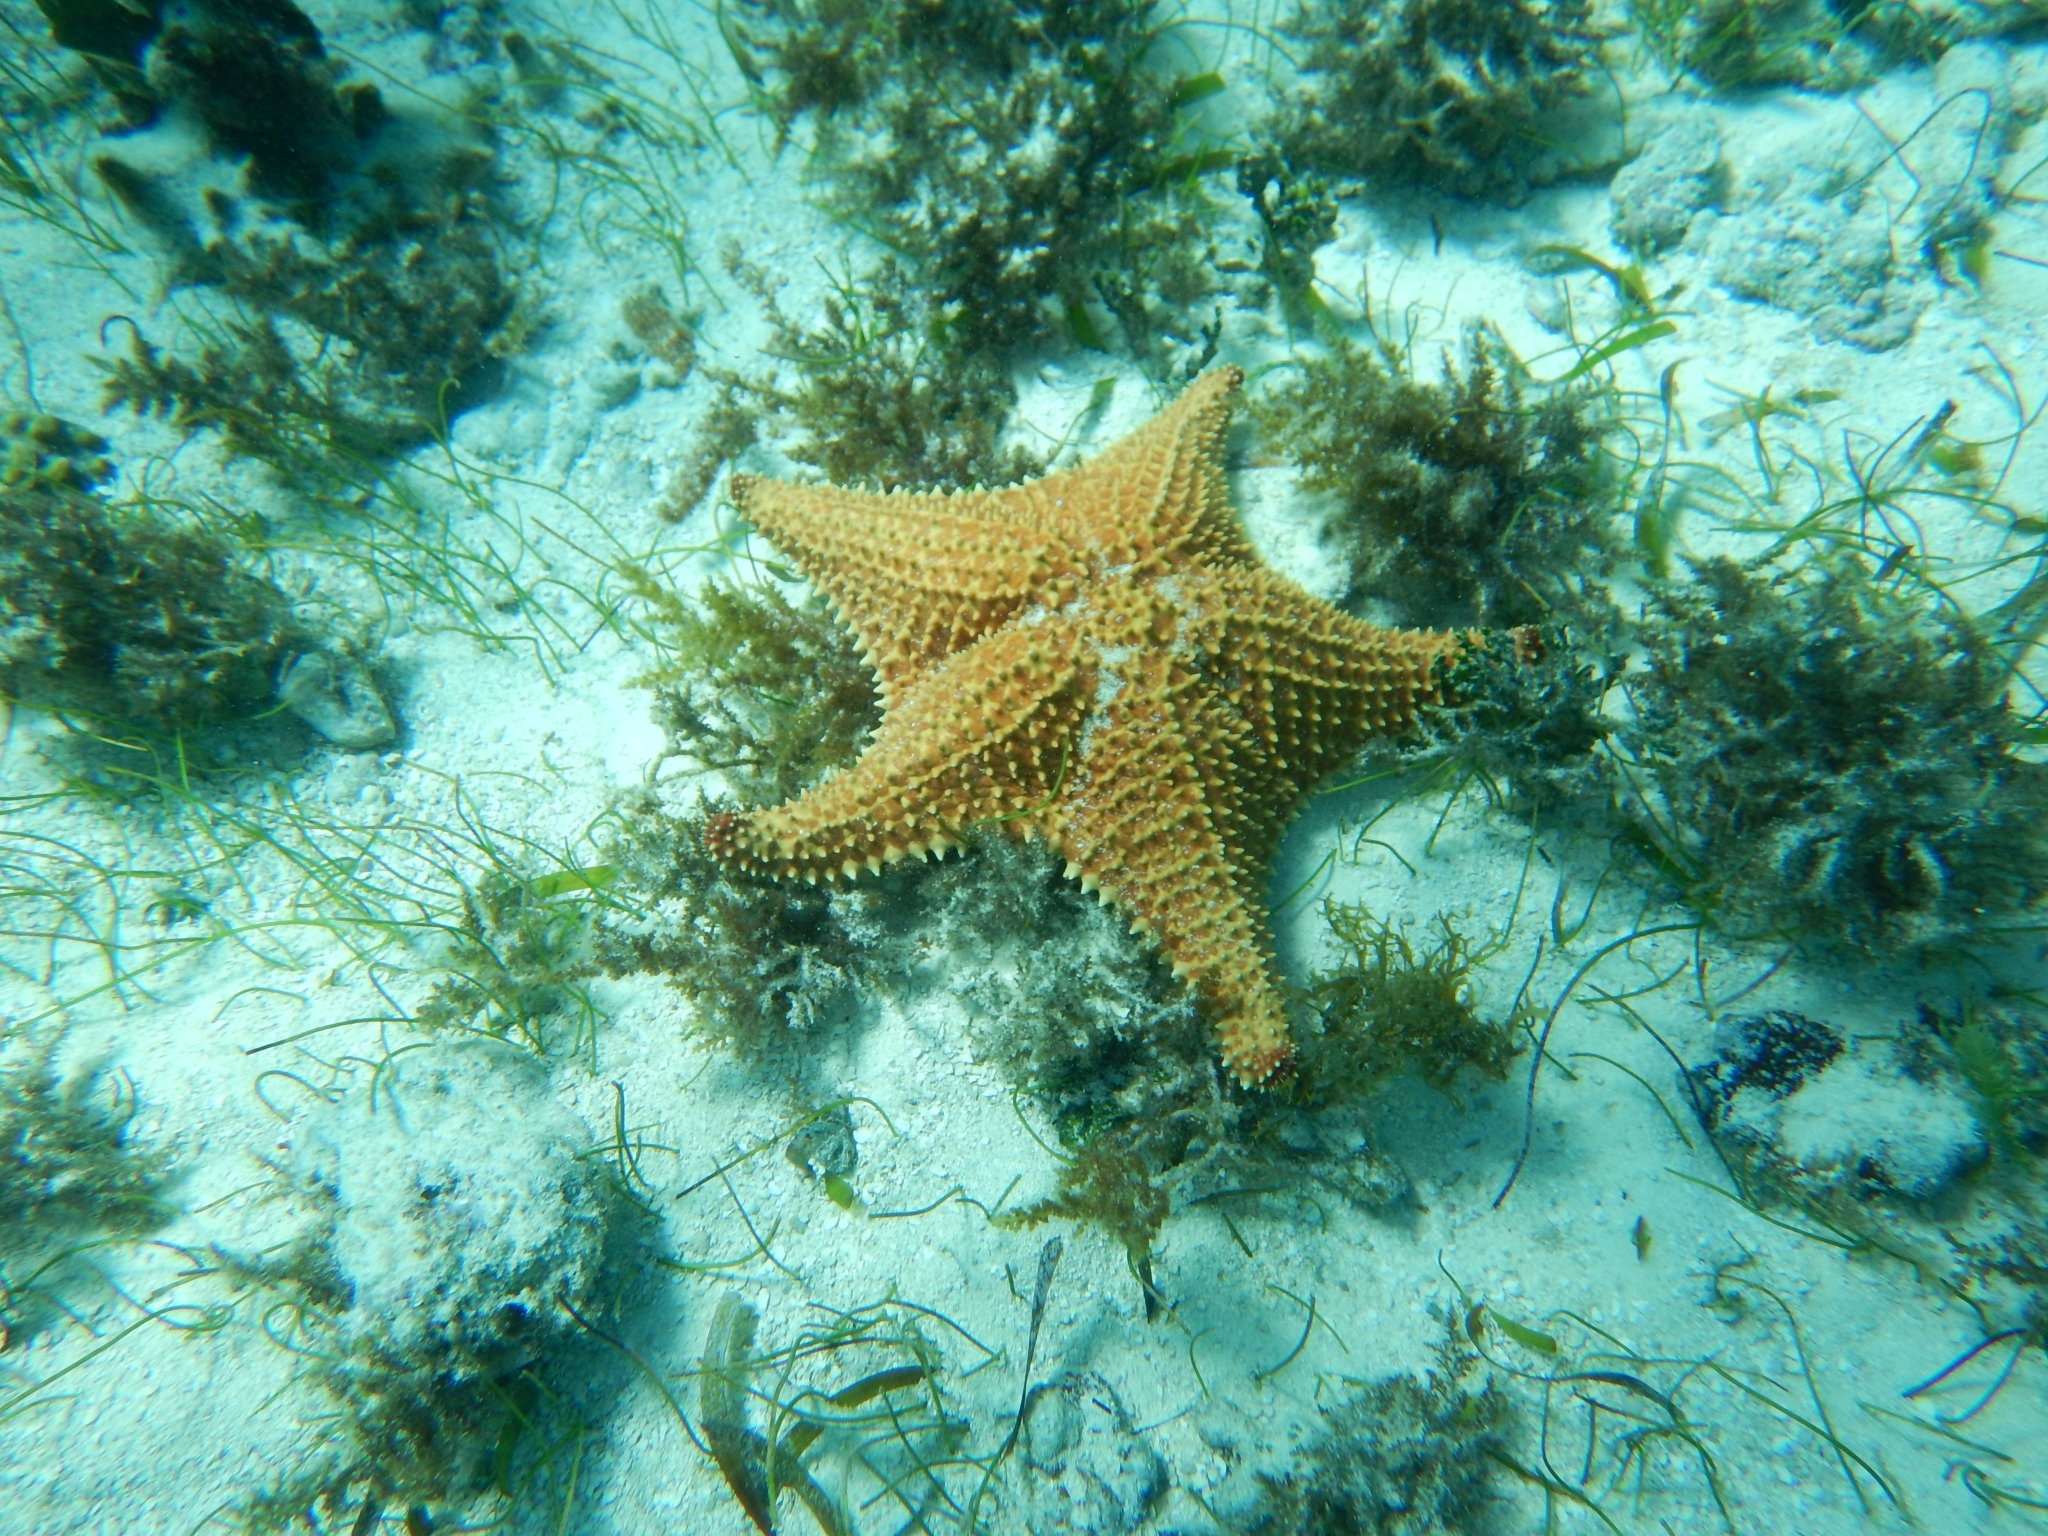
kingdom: Animalia
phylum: Echinodermata
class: Asteroidea
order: Valvatida
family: Oreasteridae
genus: Oreaster
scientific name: Oreaster reticulatus
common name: Cushion sea star
